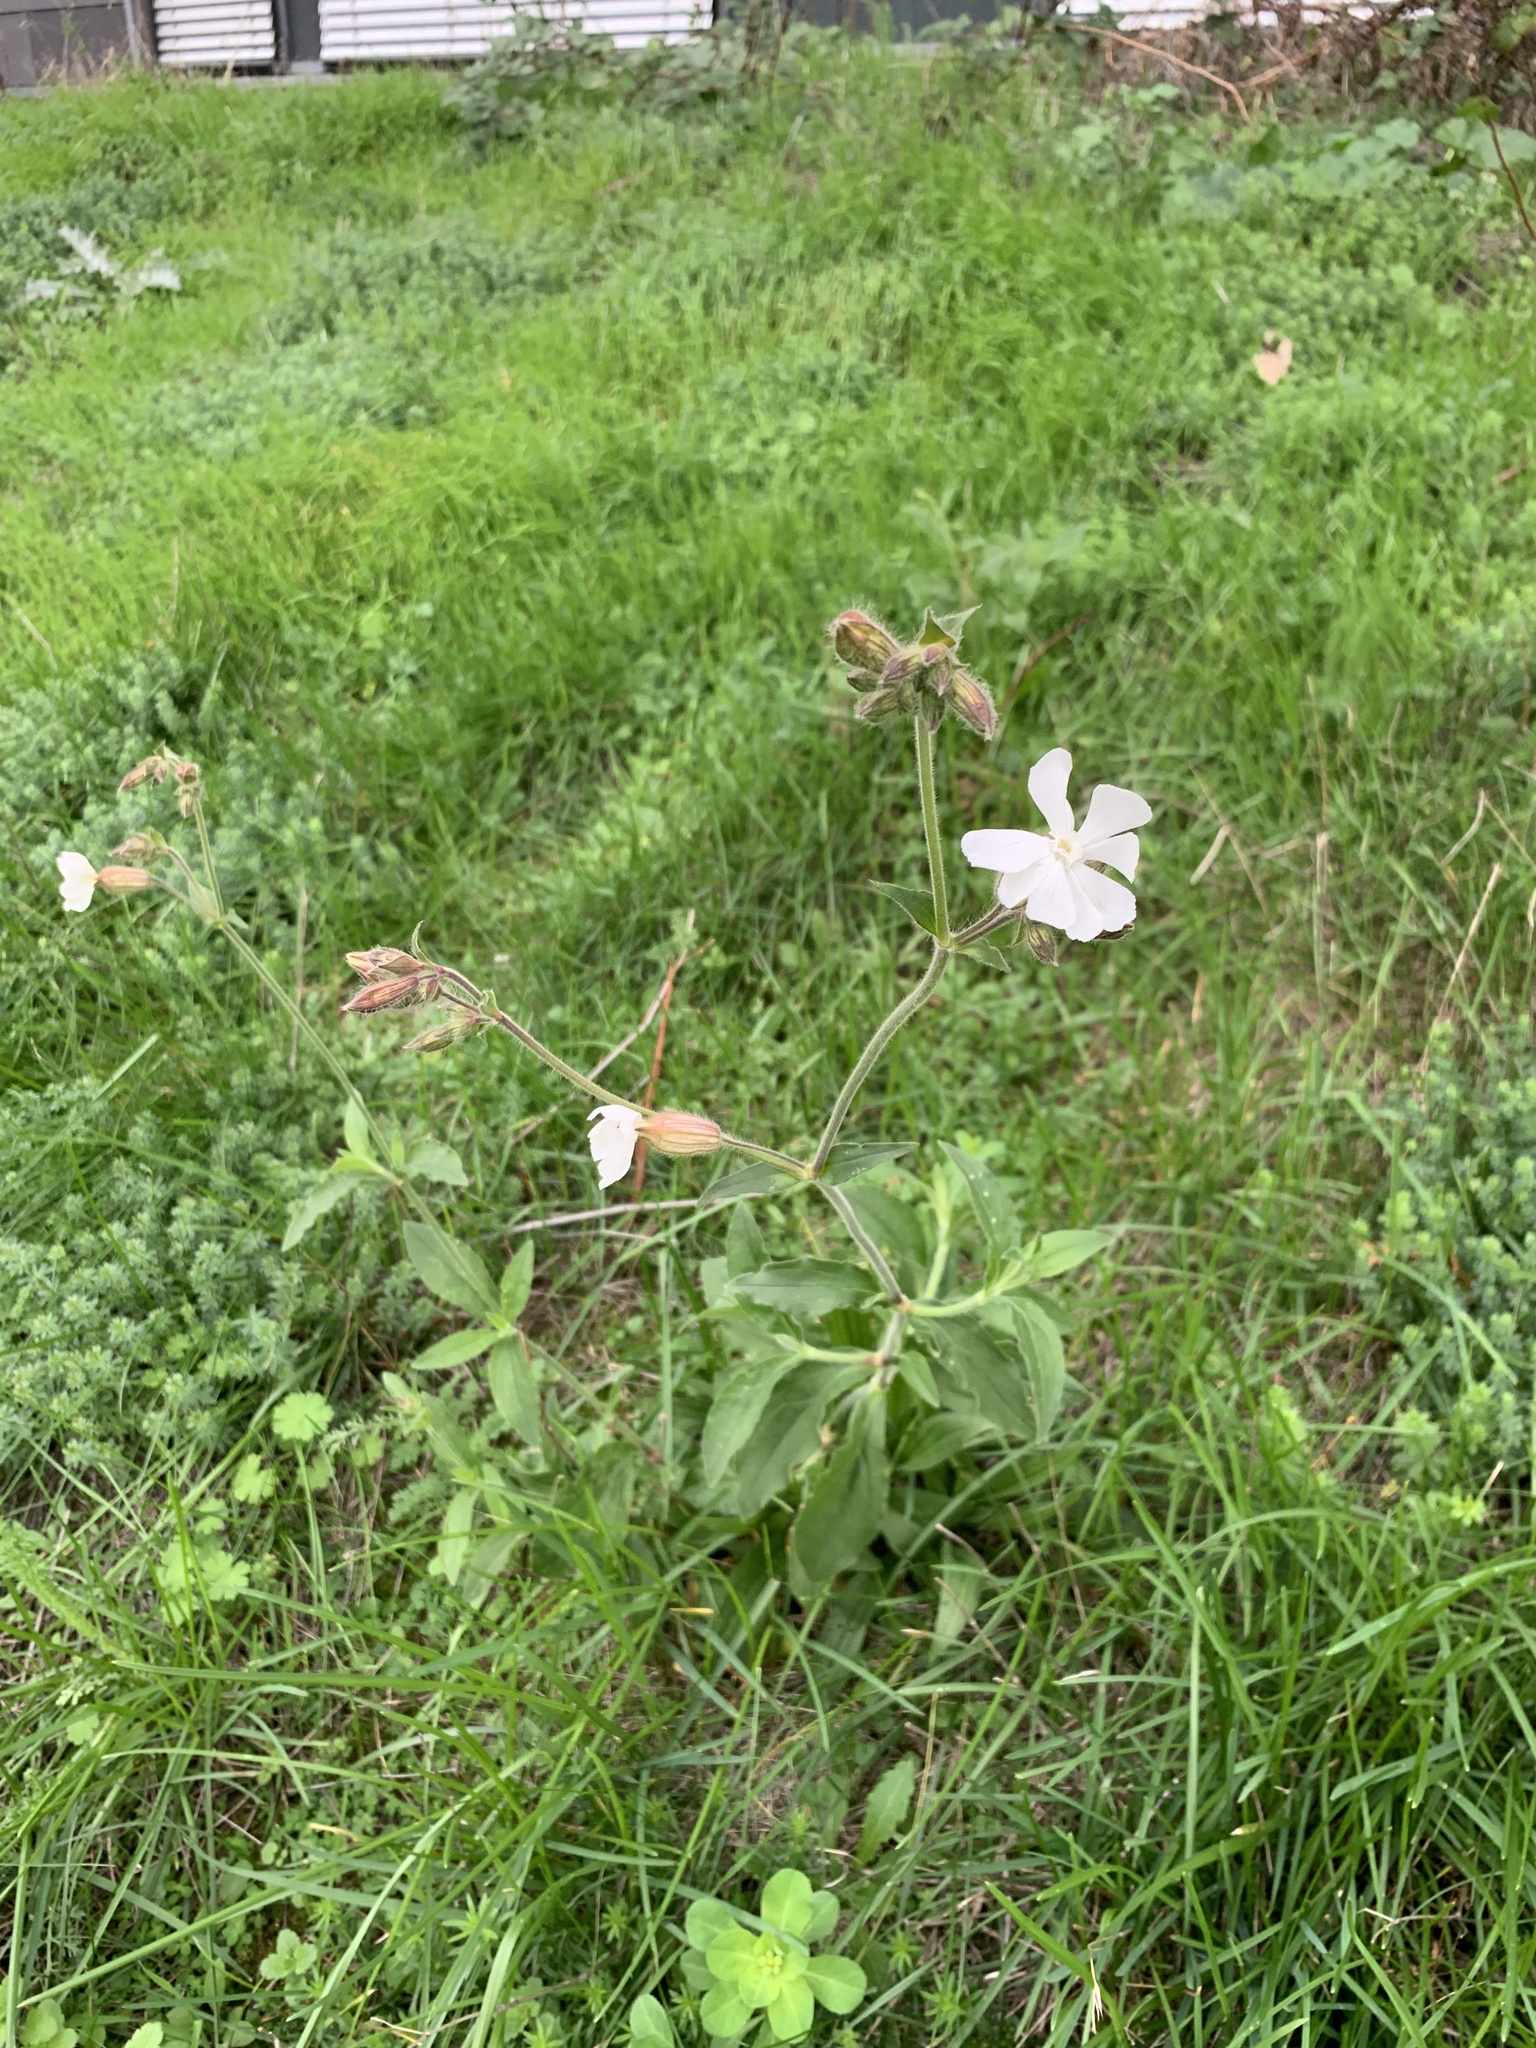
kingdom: Plantae
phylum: Tracheophyta
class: Magnoliopsida
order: Caryophyllales
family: Caryophyllaceae
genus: Silene
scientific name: Silene latifolia
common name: White campion
